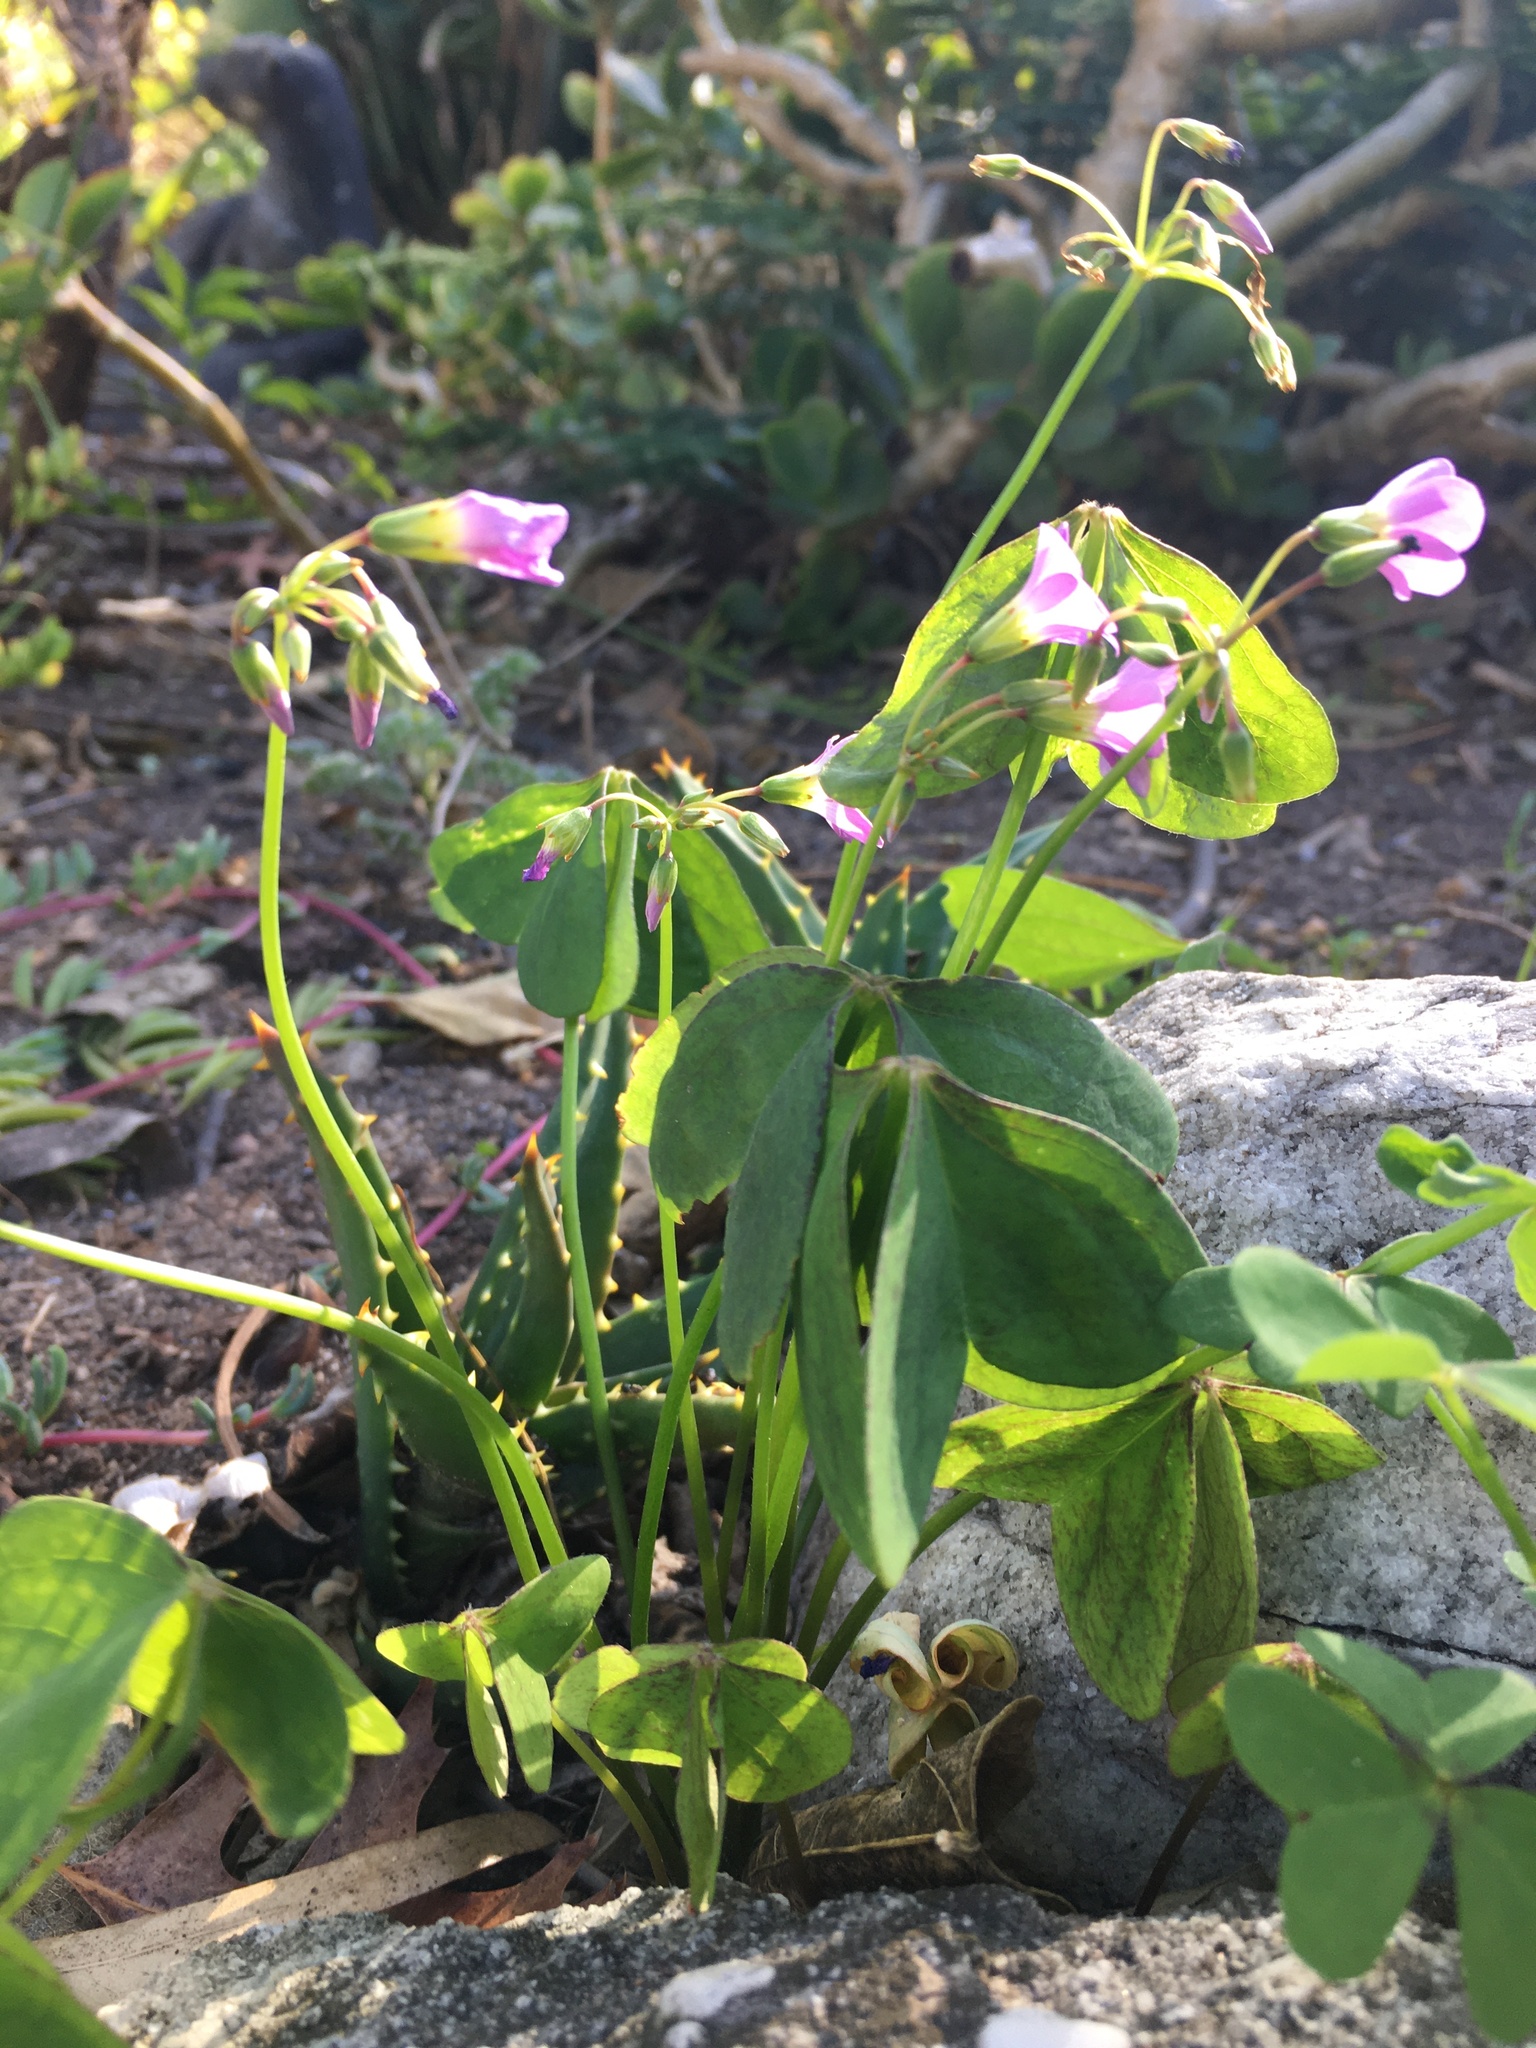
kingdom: Plantae
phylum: Tracheophyta
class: Magnoliopsida
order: Oxalidales
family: Oxalidaceae
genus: Oxalis
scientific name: Oxalis latifolia
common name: Garden pink-sorrel
